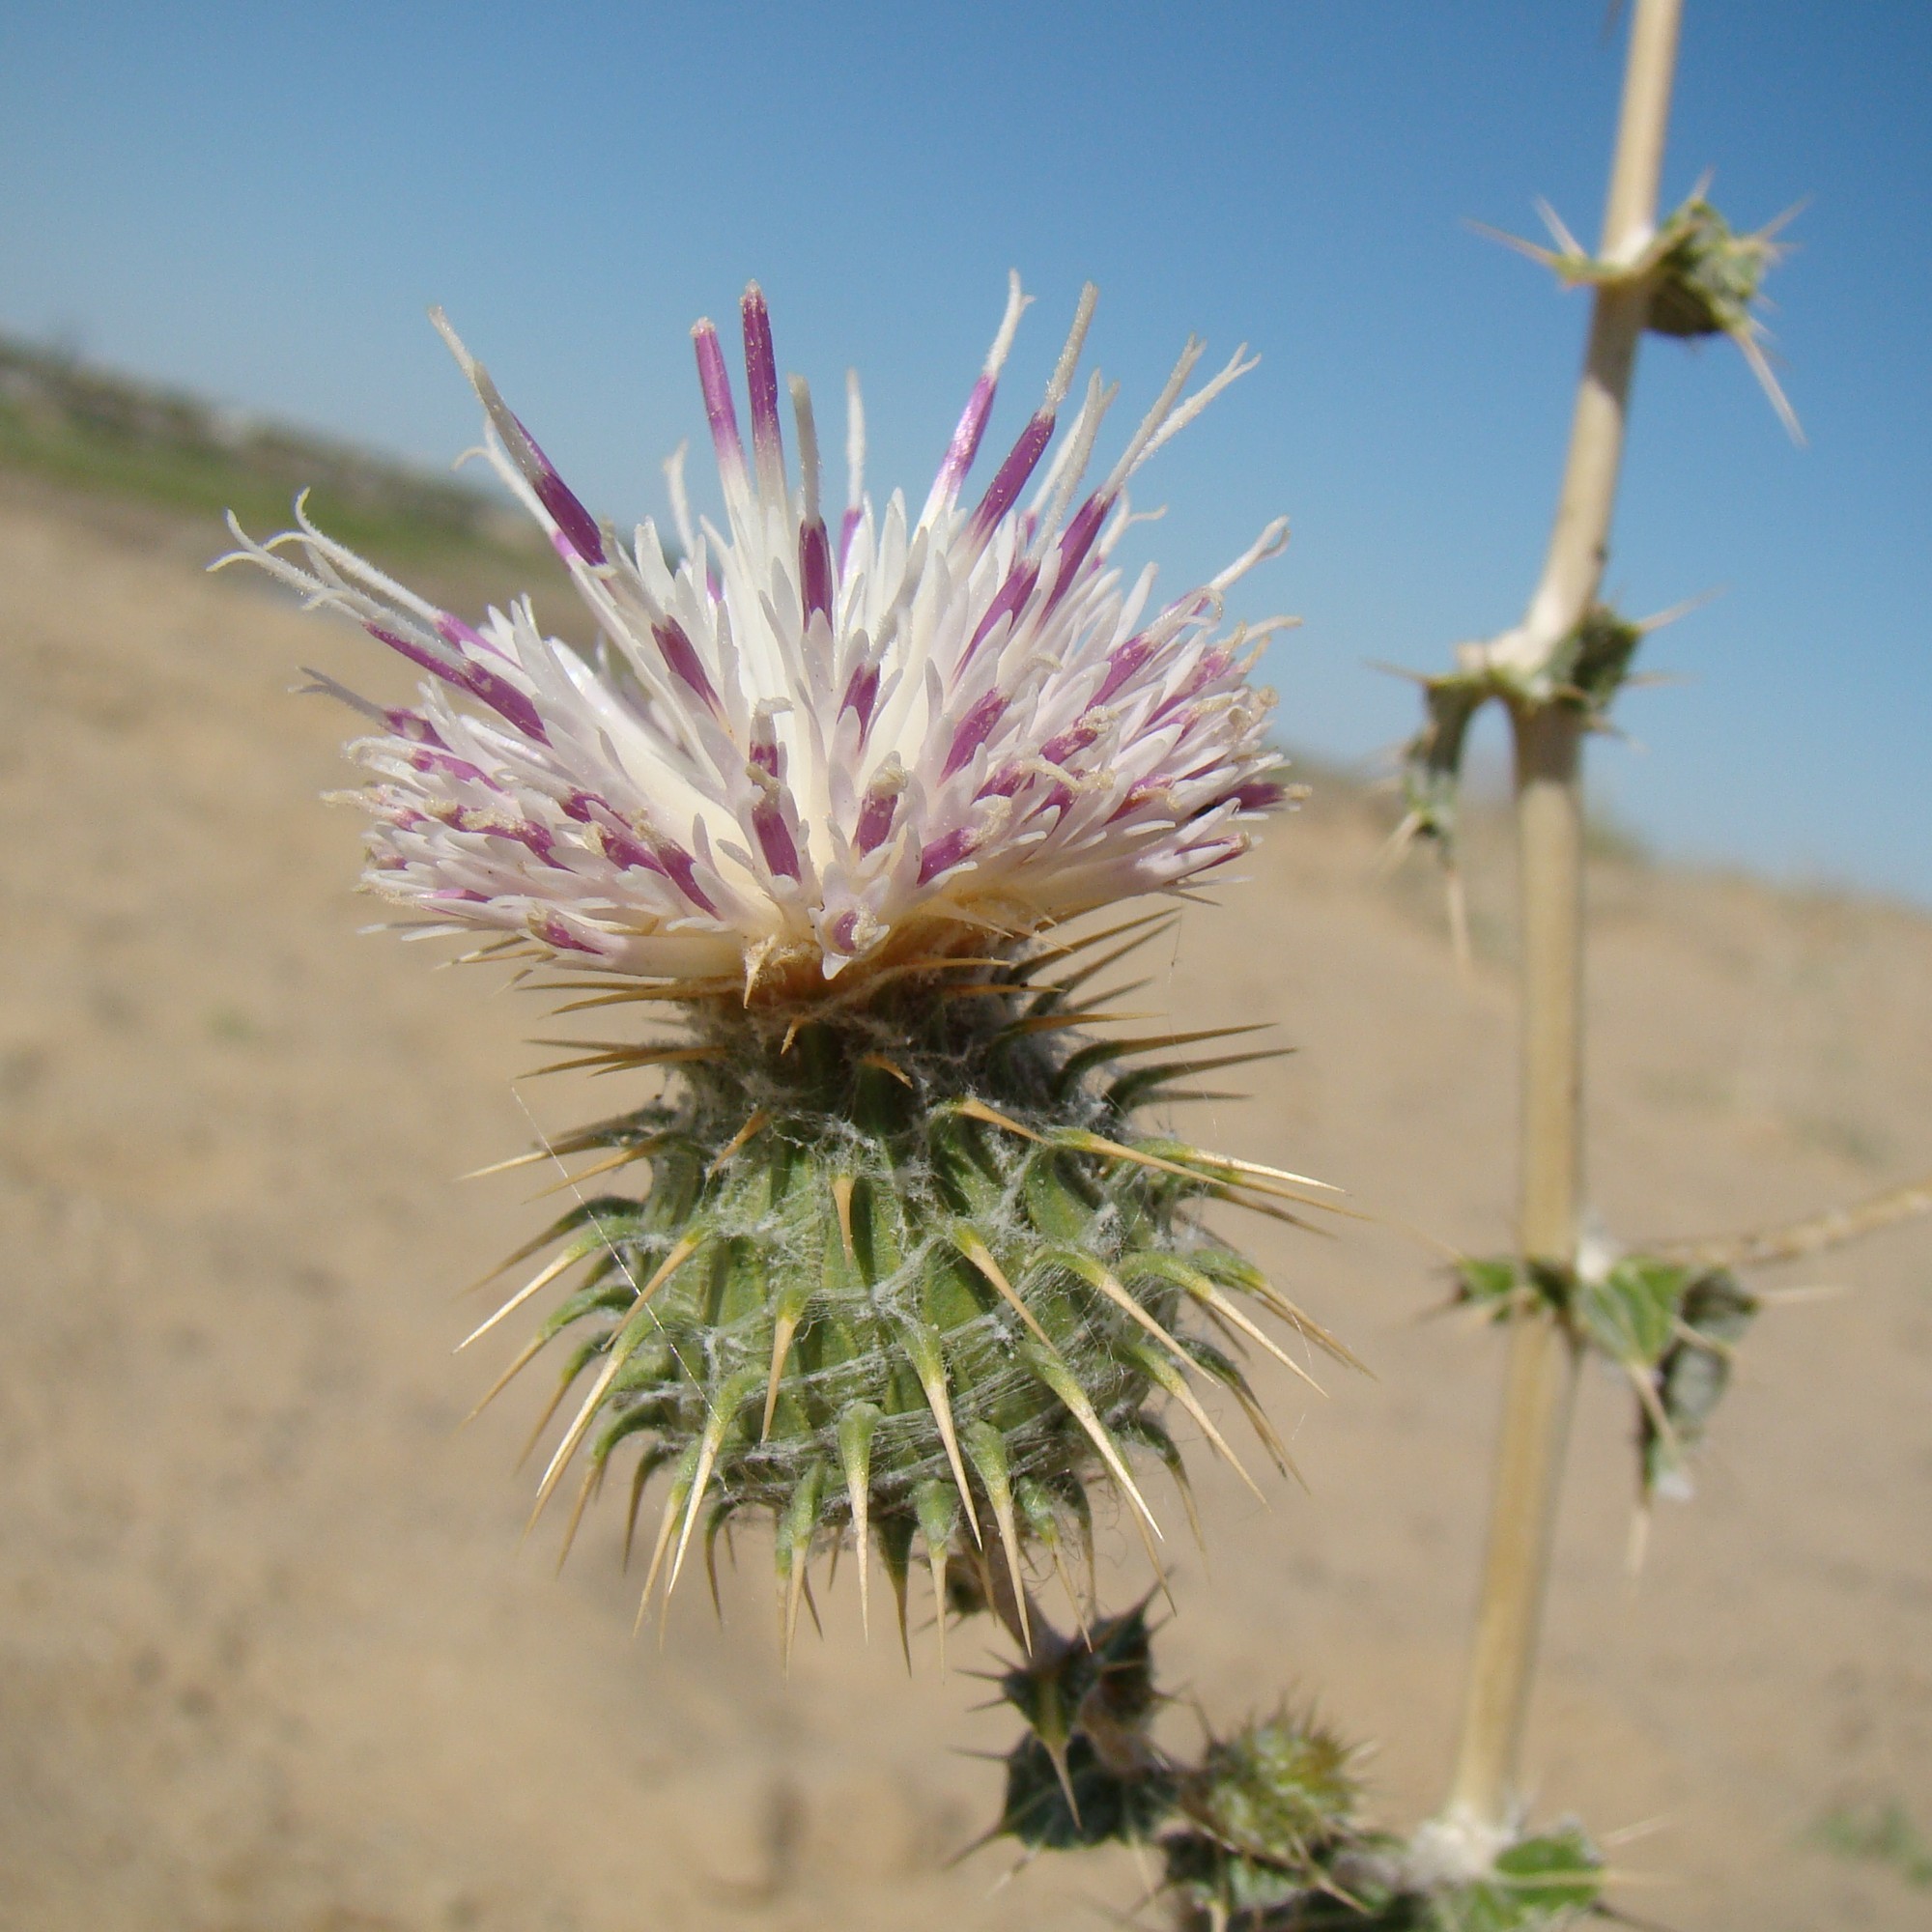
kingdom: Plantae
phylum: Tracheophyta
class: Magnoliopsida
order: Asterales
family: Asteraceae
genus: Cousinia
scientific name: Cousinia affinis
